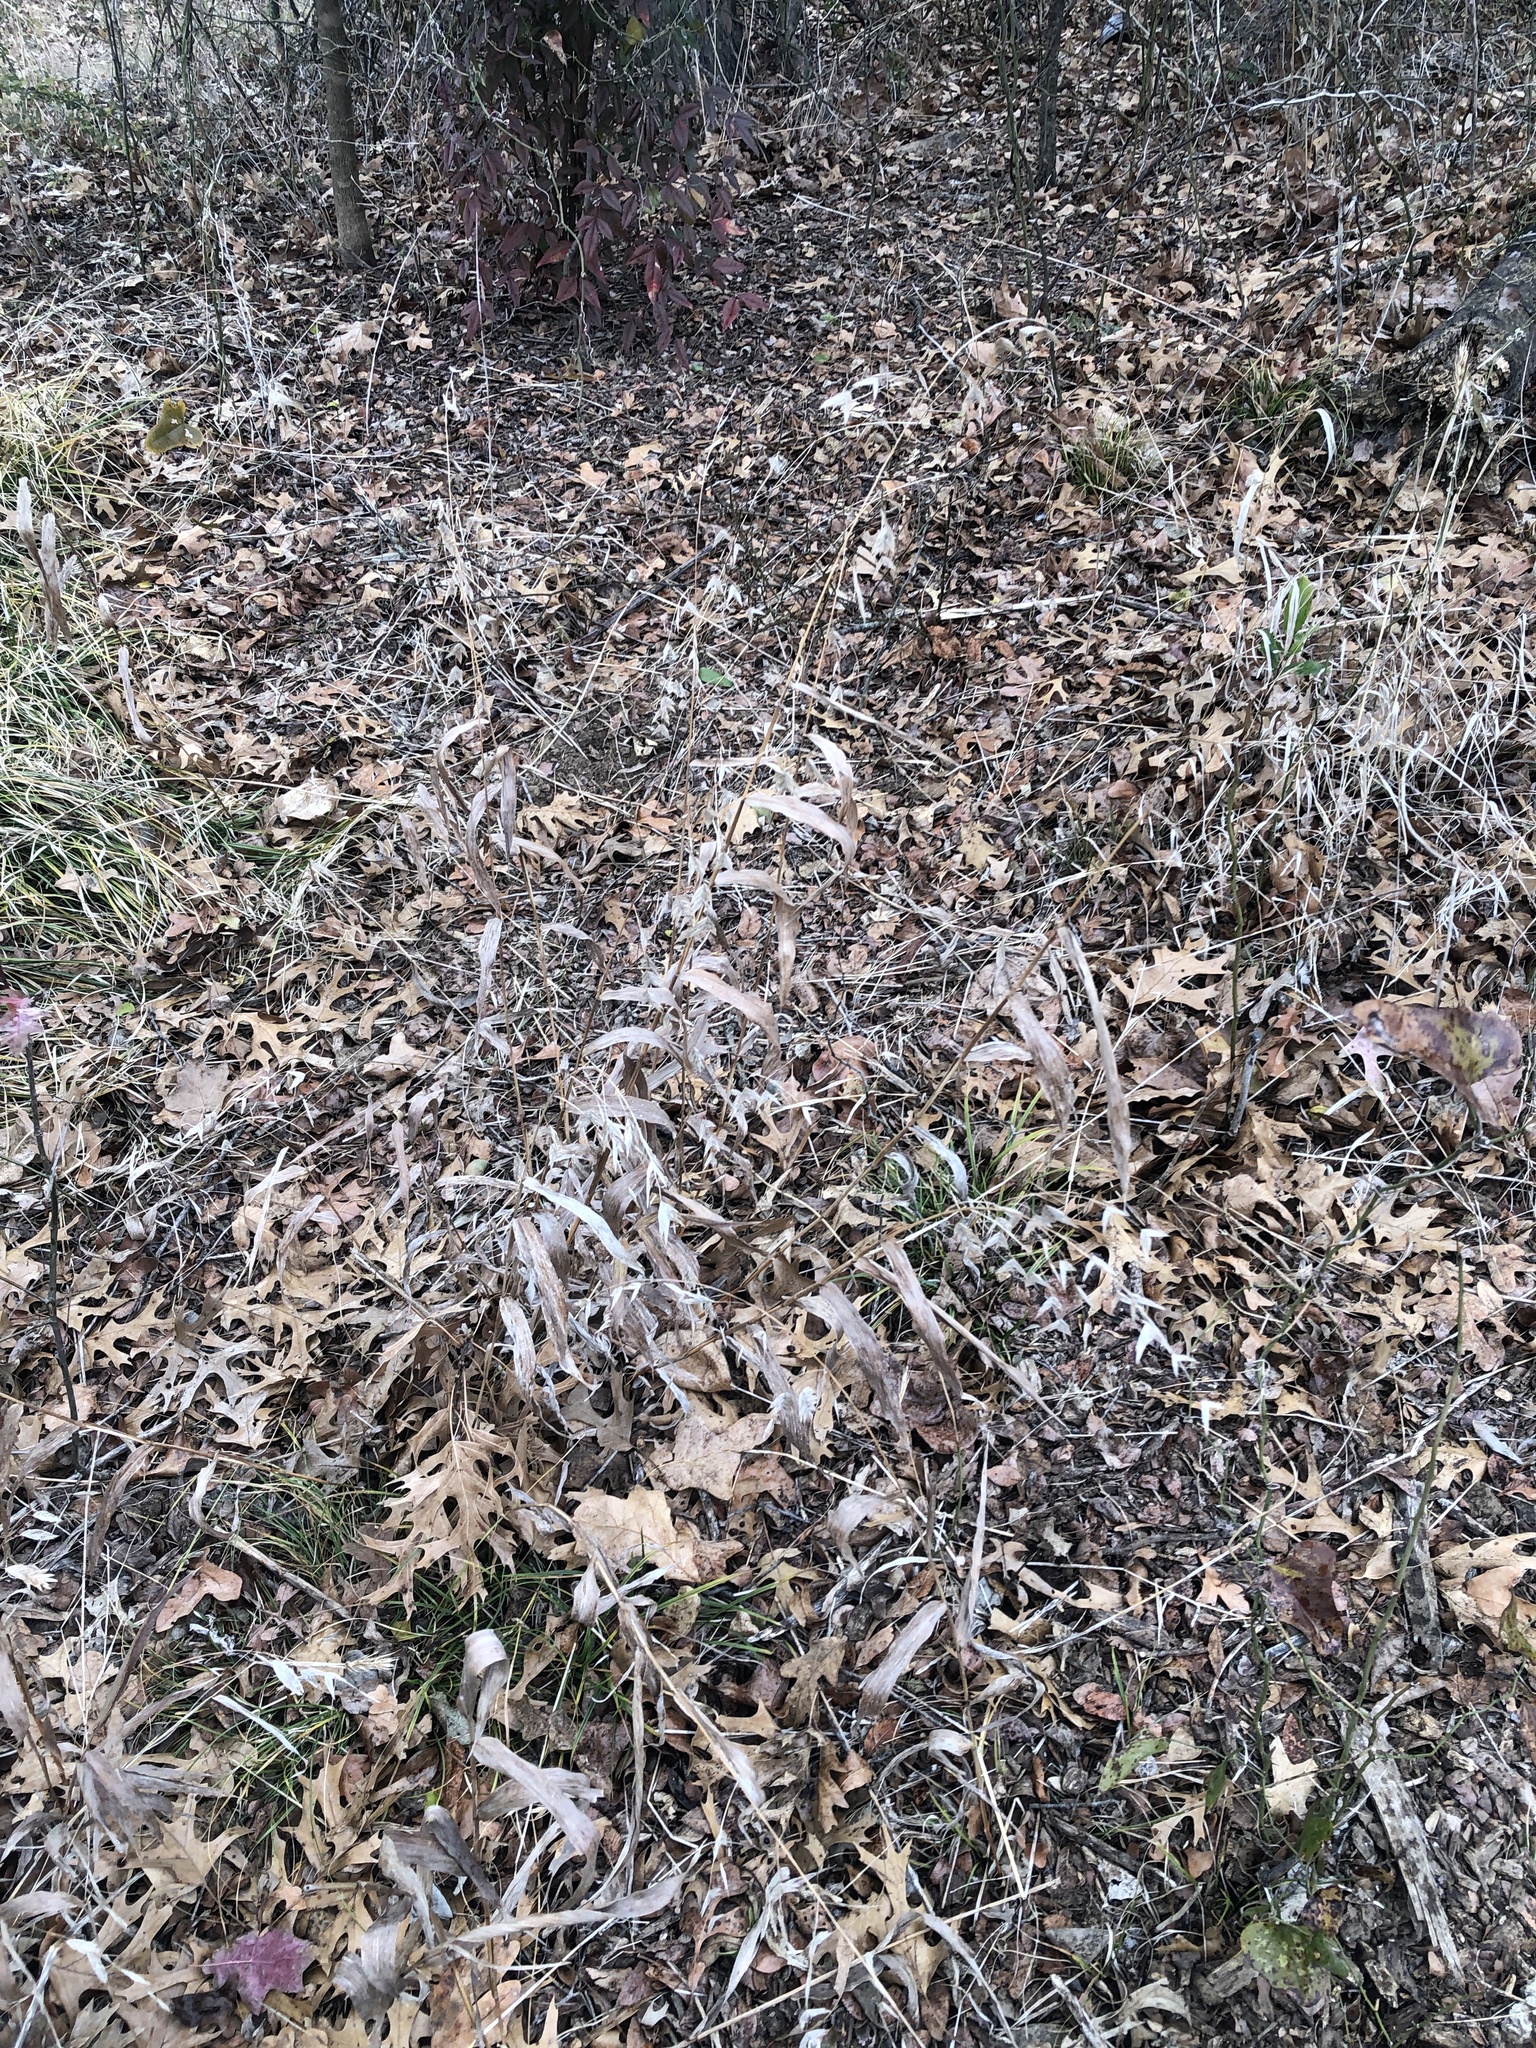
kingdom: Plantae
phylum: Tracheophyta
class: Liliopsida
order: Poales
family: Poaceae
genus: Chasmanthium
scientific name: Chasmanthium latifolium
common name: Broad-leaved chasmanthium
